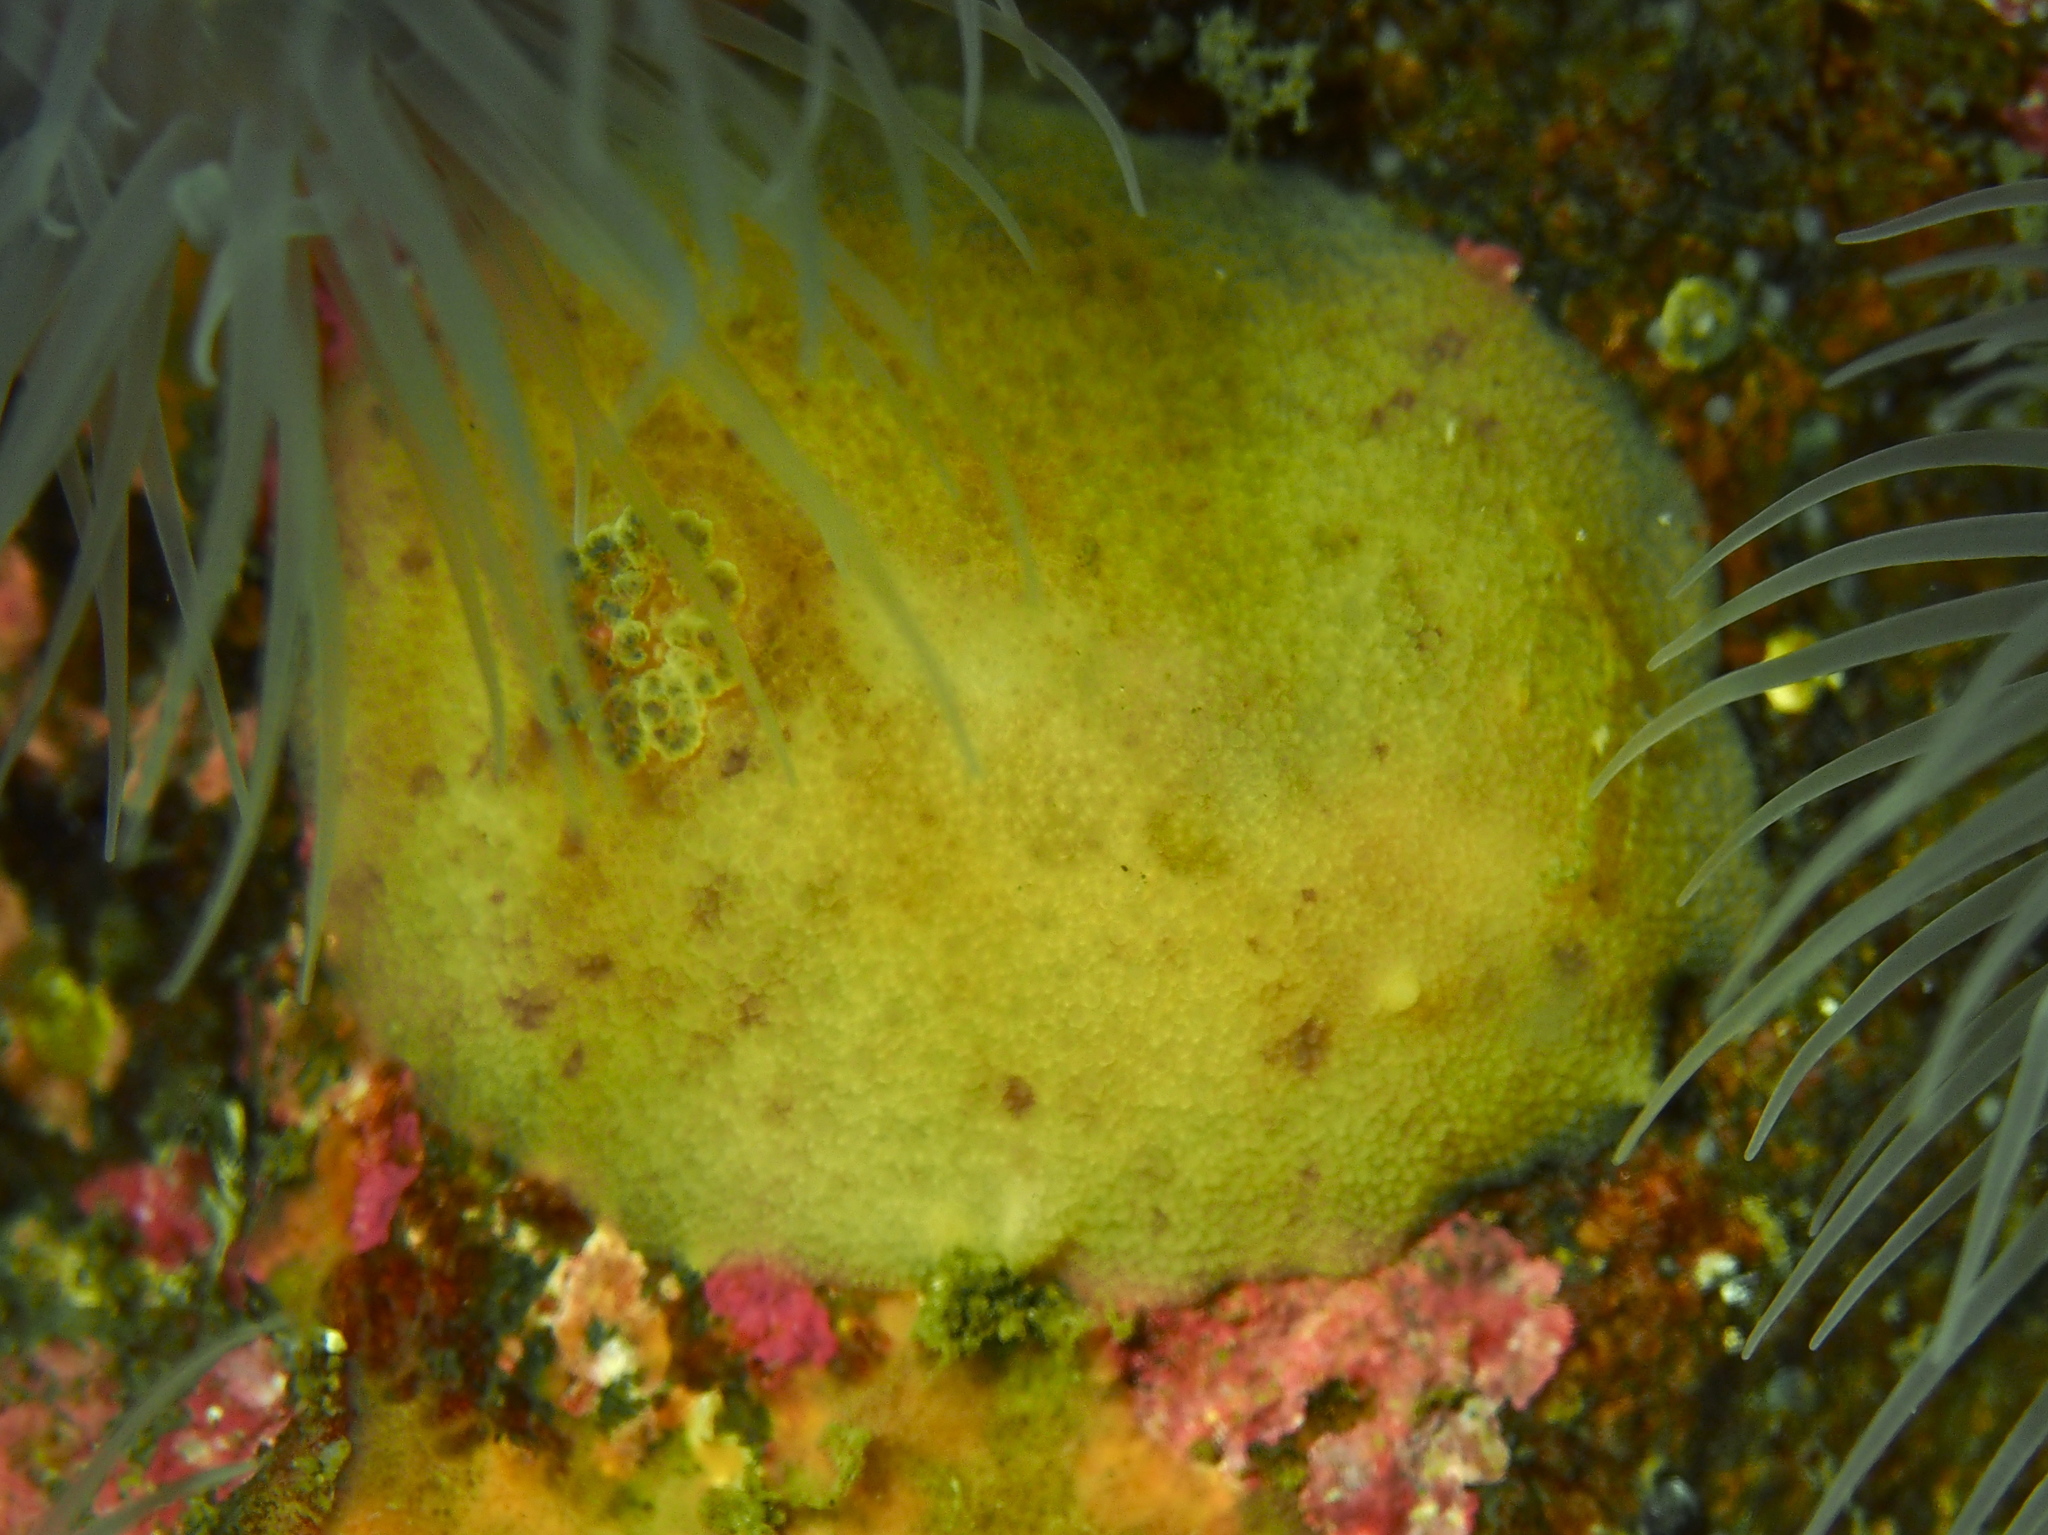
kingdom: Animalia
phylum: Mollusca
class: Gastropoda
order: Nudibranchia
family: Dorididae
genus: Doris
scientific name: Doris pseudoargus
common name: Sea lemon
